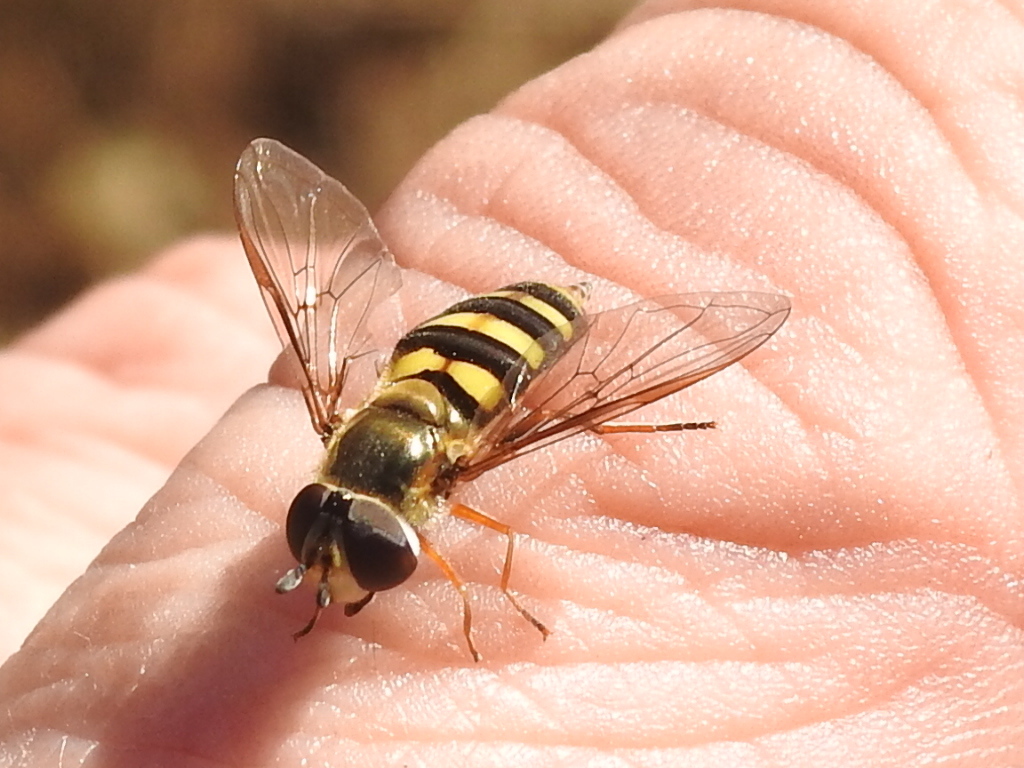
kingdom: Animalia
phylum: Arthropoda
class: Insecta
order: Diptera
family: Syrphidae
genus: Eupeodes
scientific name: Eupeodes
